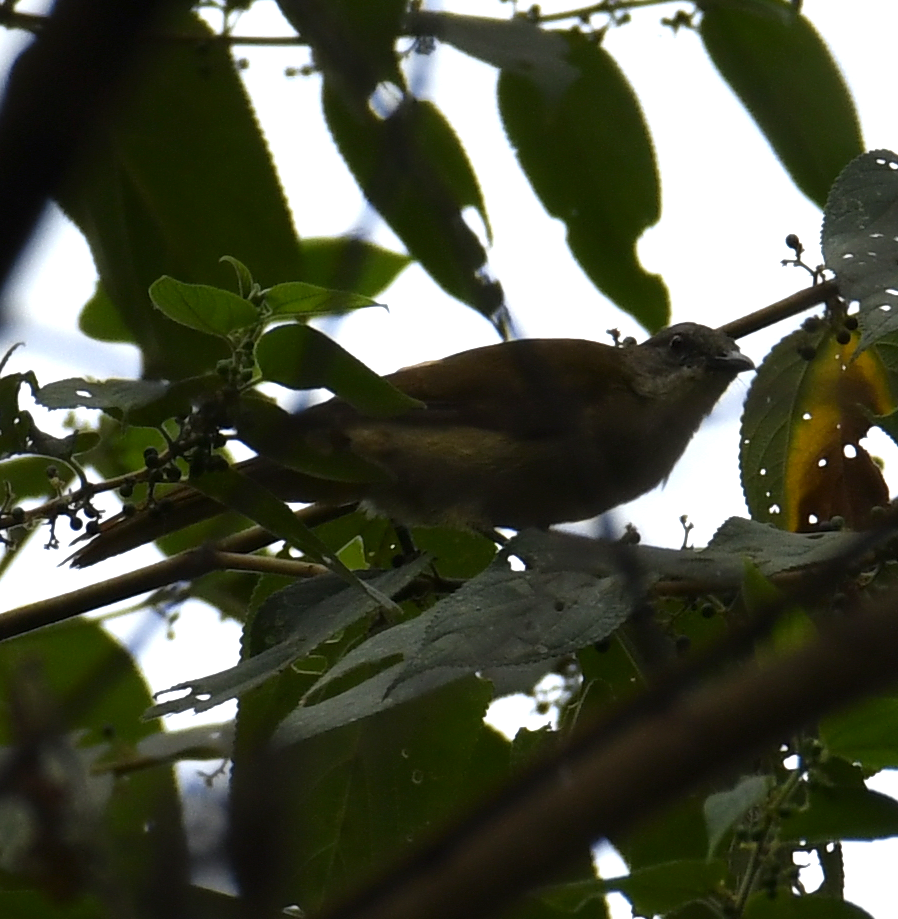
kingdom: Animalia
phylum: Chordata
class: Aves
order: Passeriformes
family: Pycnonotidae
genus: Stelgidillas
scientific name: Stelgidillas gracilirostris
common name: Slender-billed greenbul
